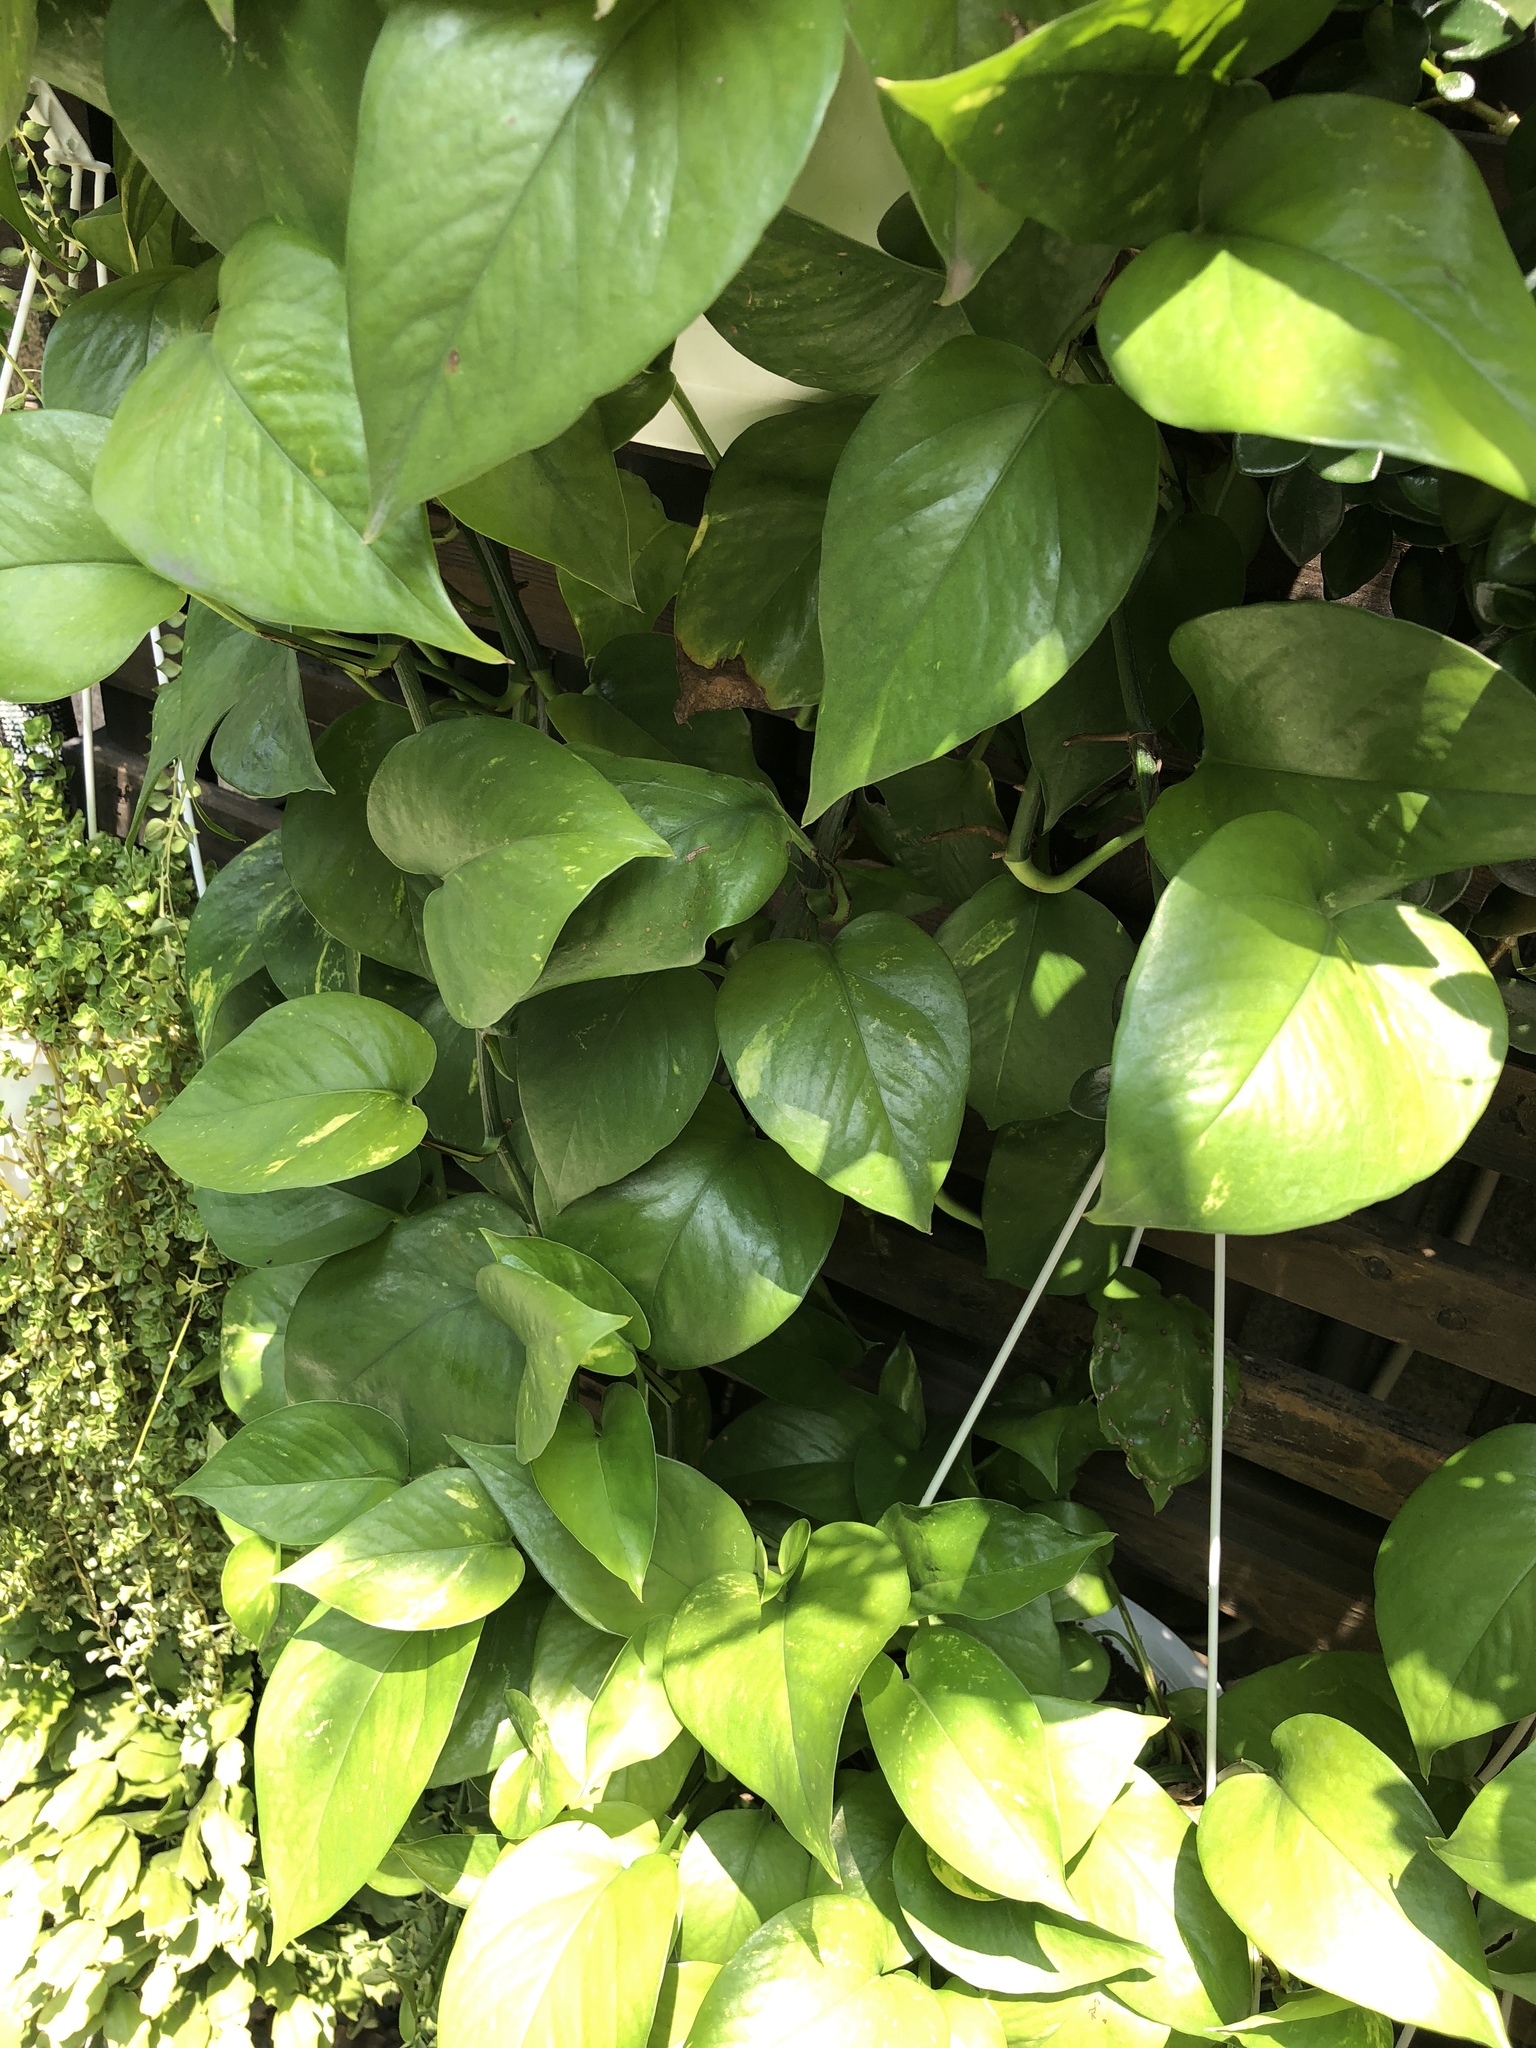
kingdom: Plantae
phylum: Tracheophyta
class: Liliopsida
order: Alismatales
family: Araceae
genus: Epipremnum
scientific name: Epipremnum aureum
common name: Golden hunter's-robe
